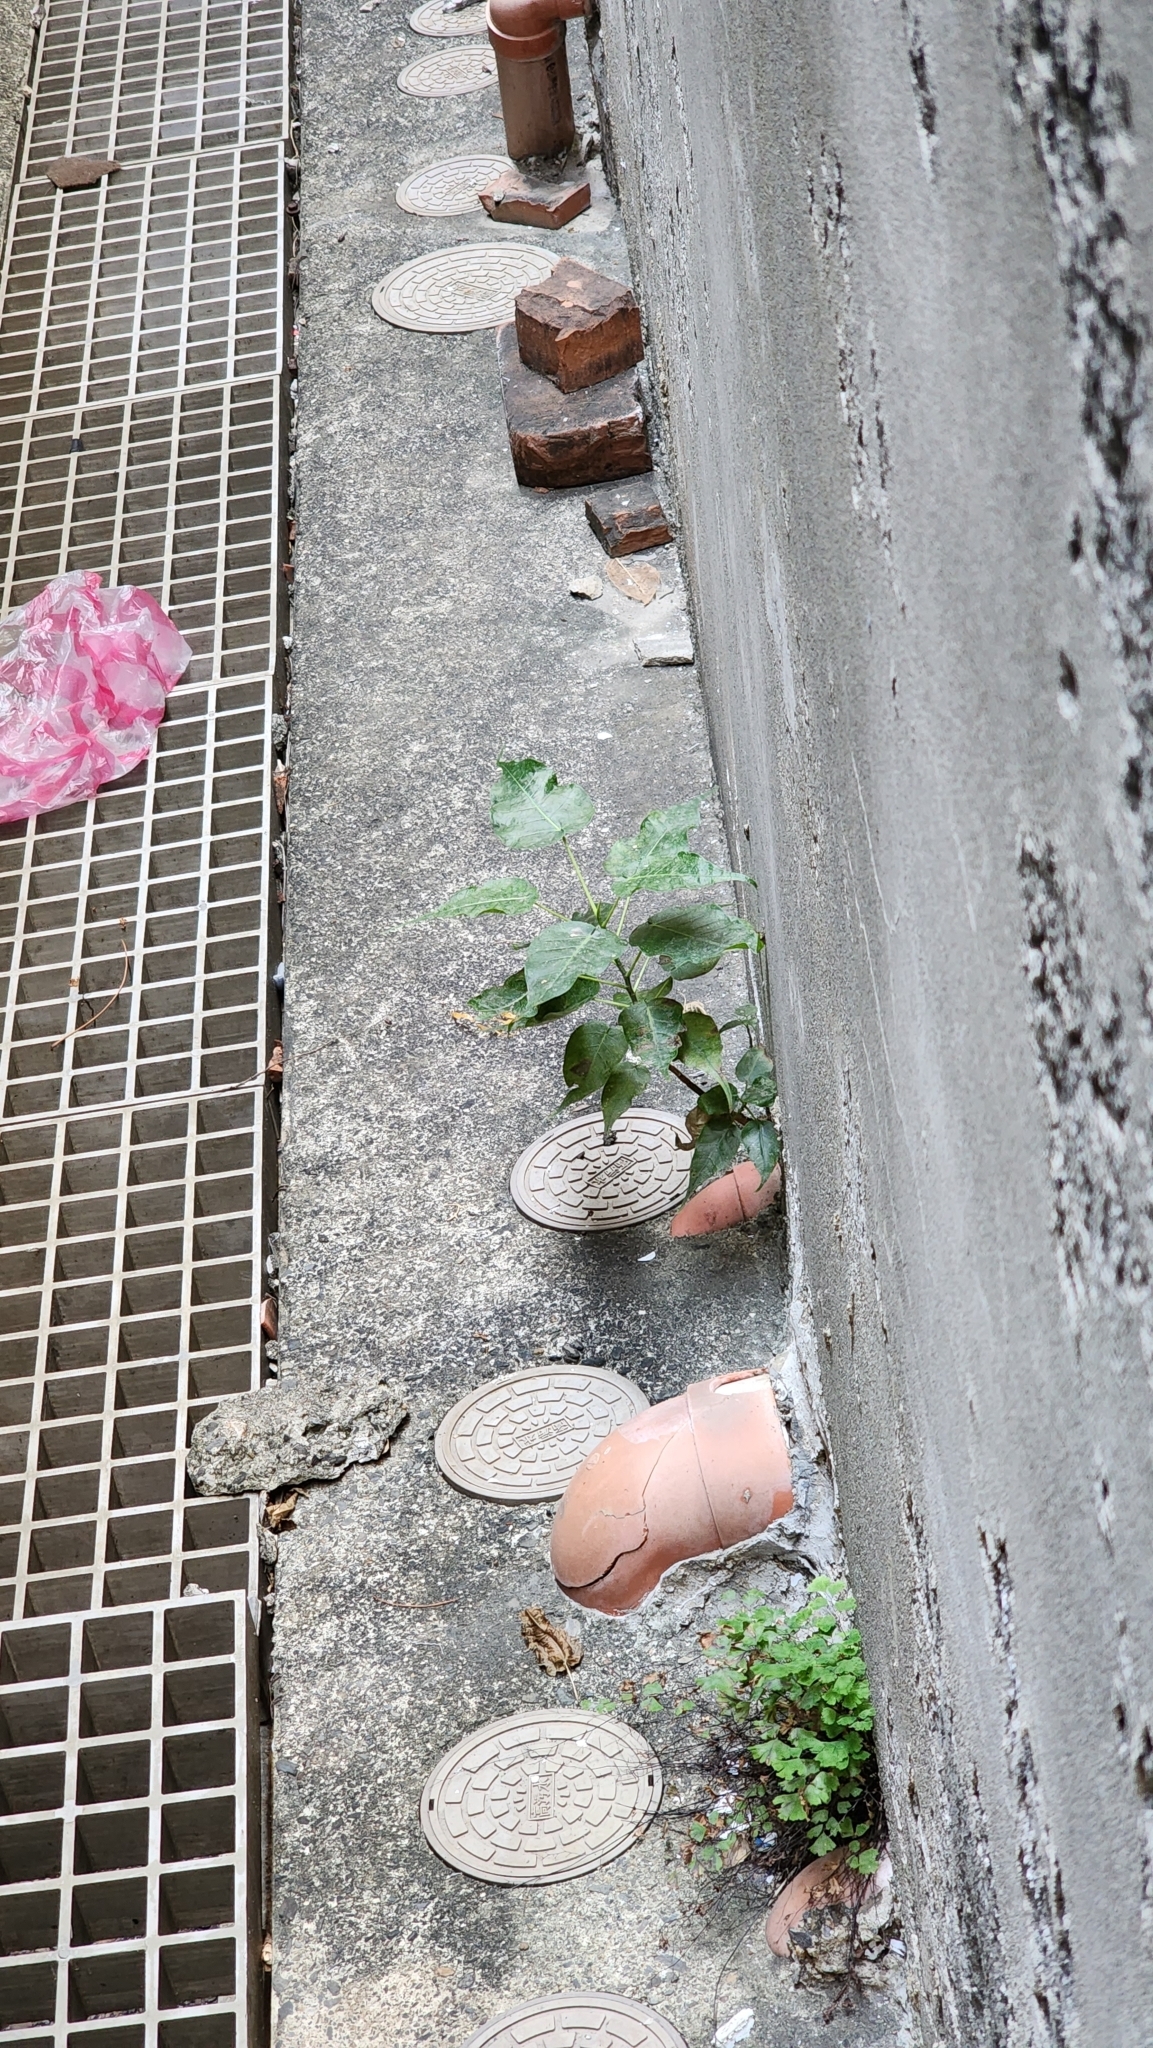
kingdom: Plantae
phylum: Tracheophyta
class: Magnoliopsida
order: Rosales
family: Moraceae
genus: Ficus
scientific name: Ficus religiosa
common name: Bodhi tree
